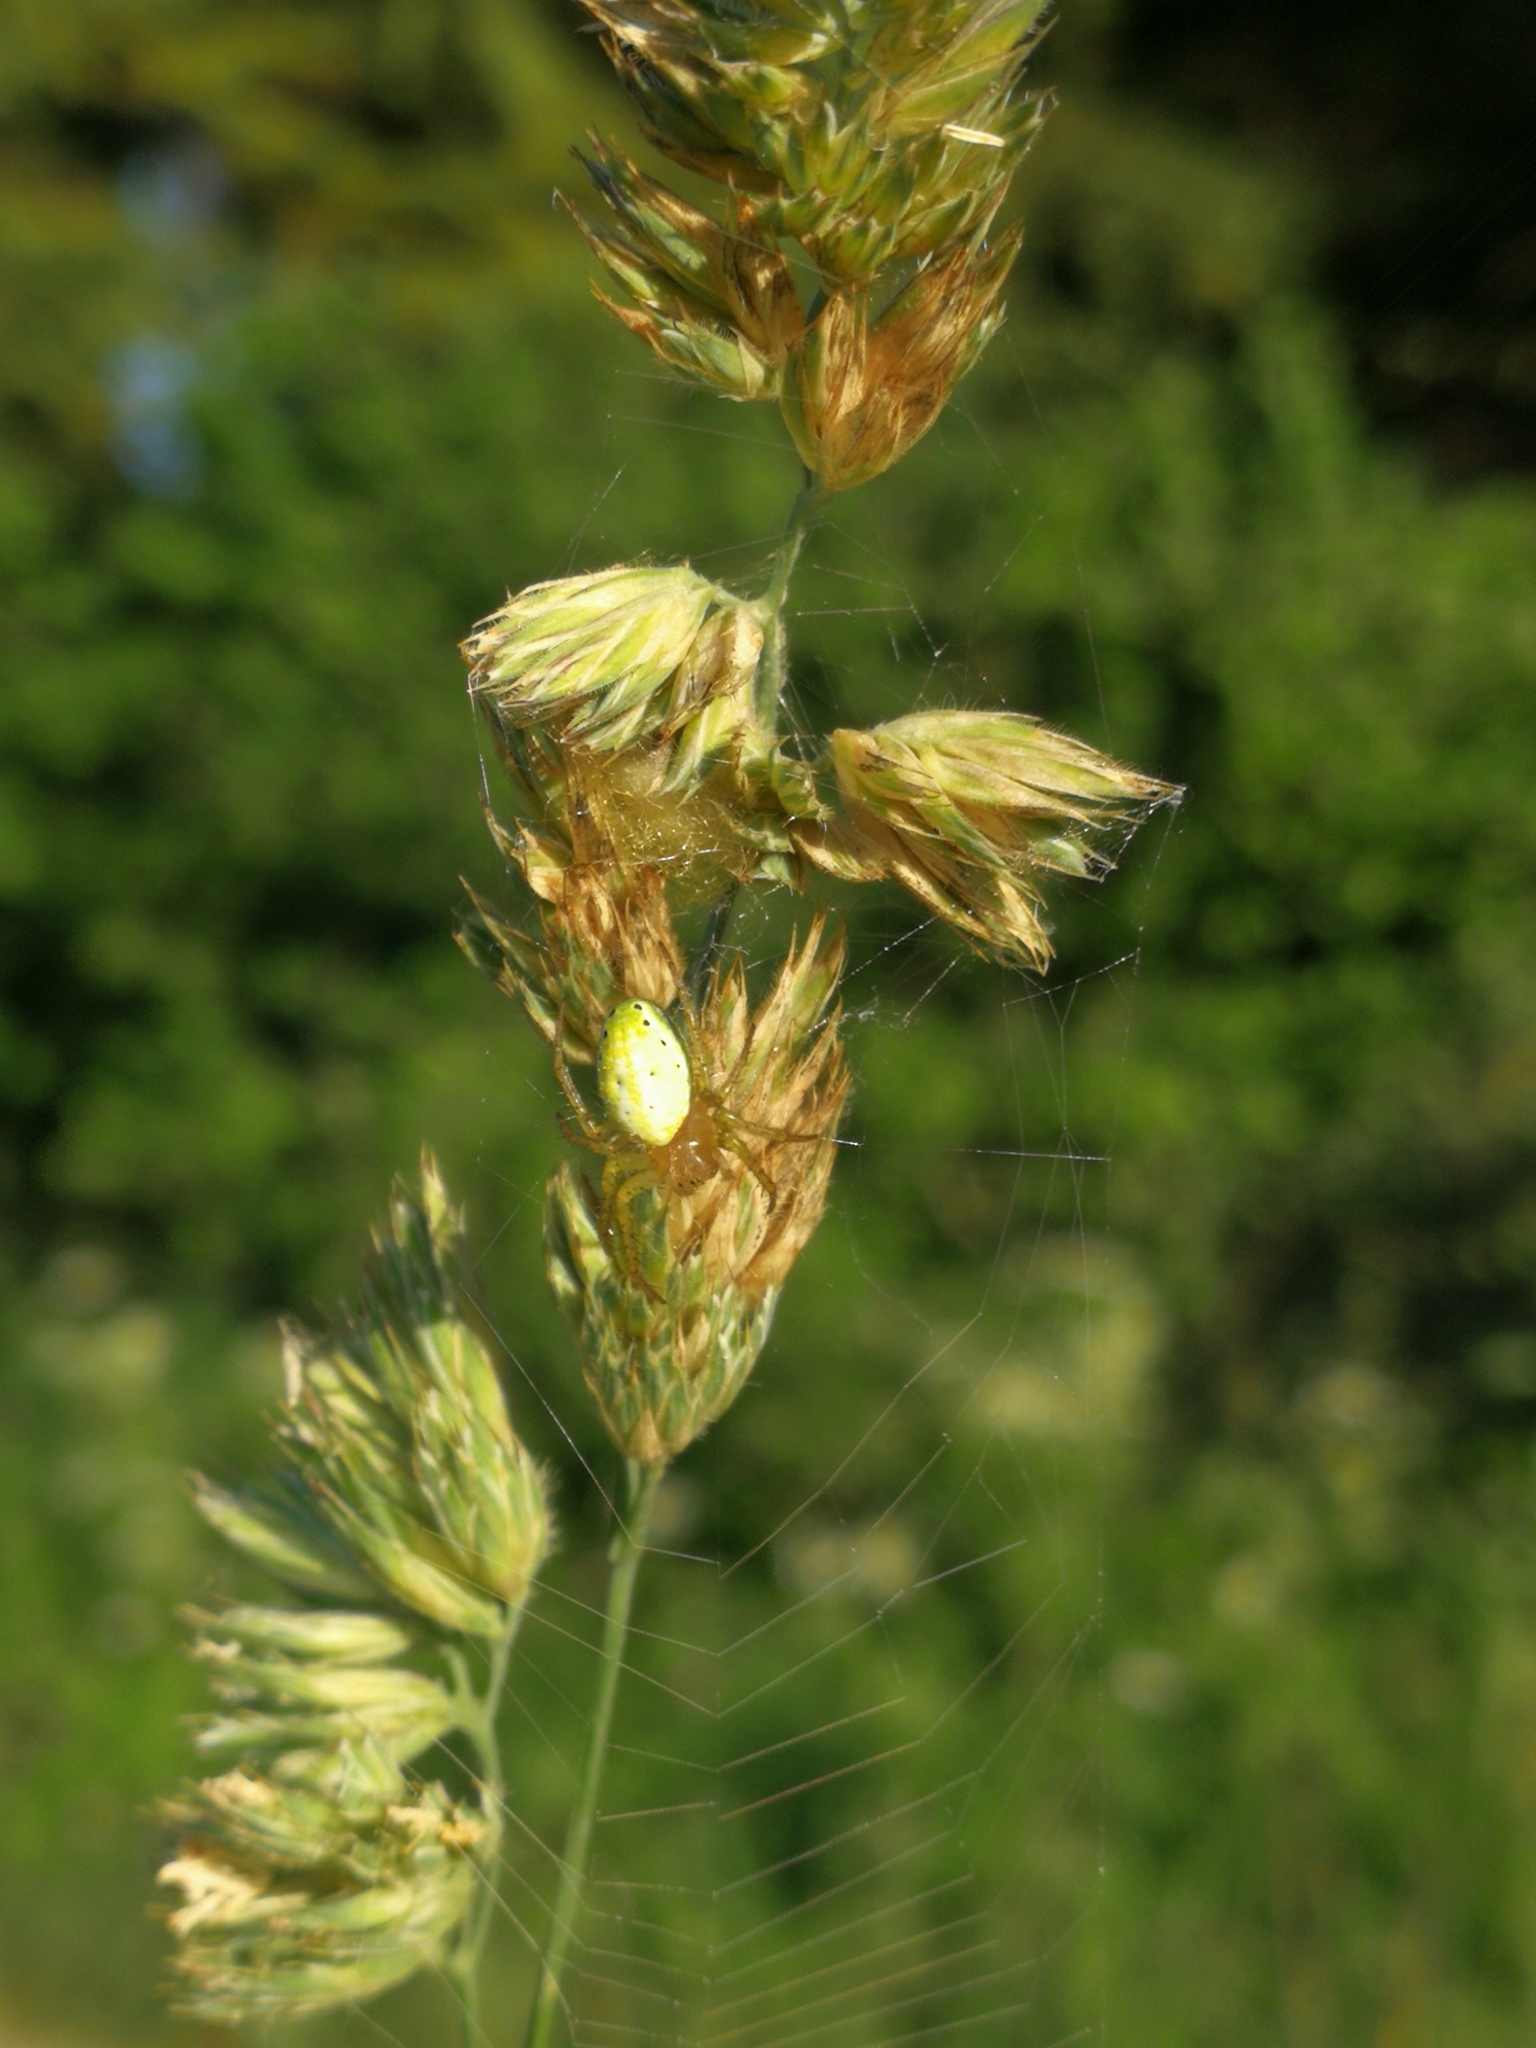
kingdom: Animalia
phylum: Arthropoda
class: Arachnida
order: Araneae
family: Araneidae
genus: Araniella
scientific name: Araniella
